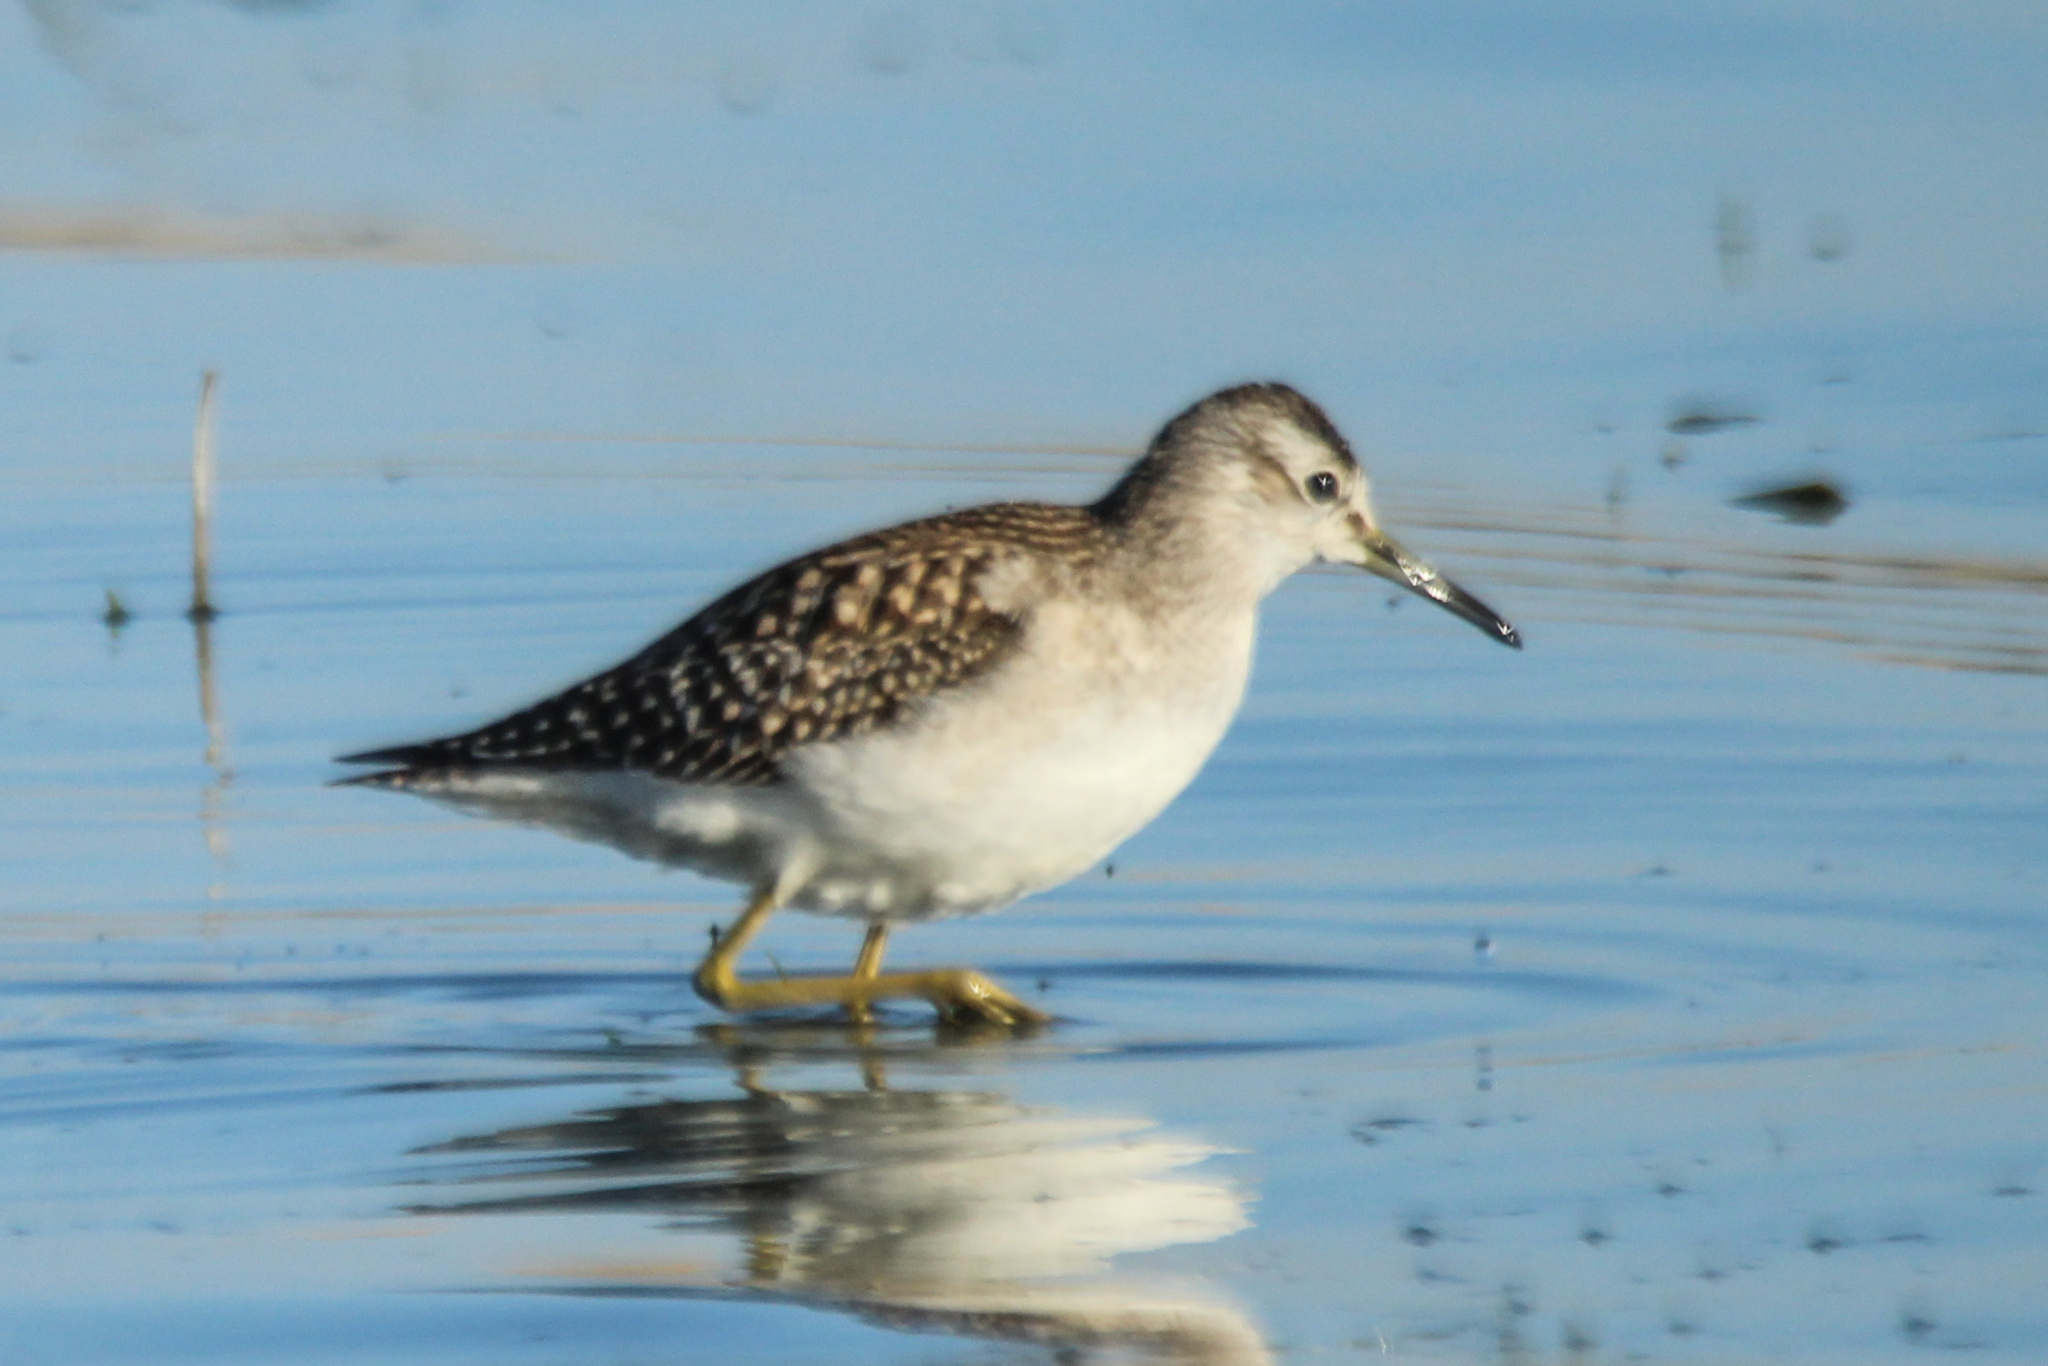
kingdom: Animalia
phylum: Chordata
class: Aves
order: Charadriiformes
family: Scolopacidae
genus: Tringa
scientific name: Tringa glareola
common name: Wood sandpiper
